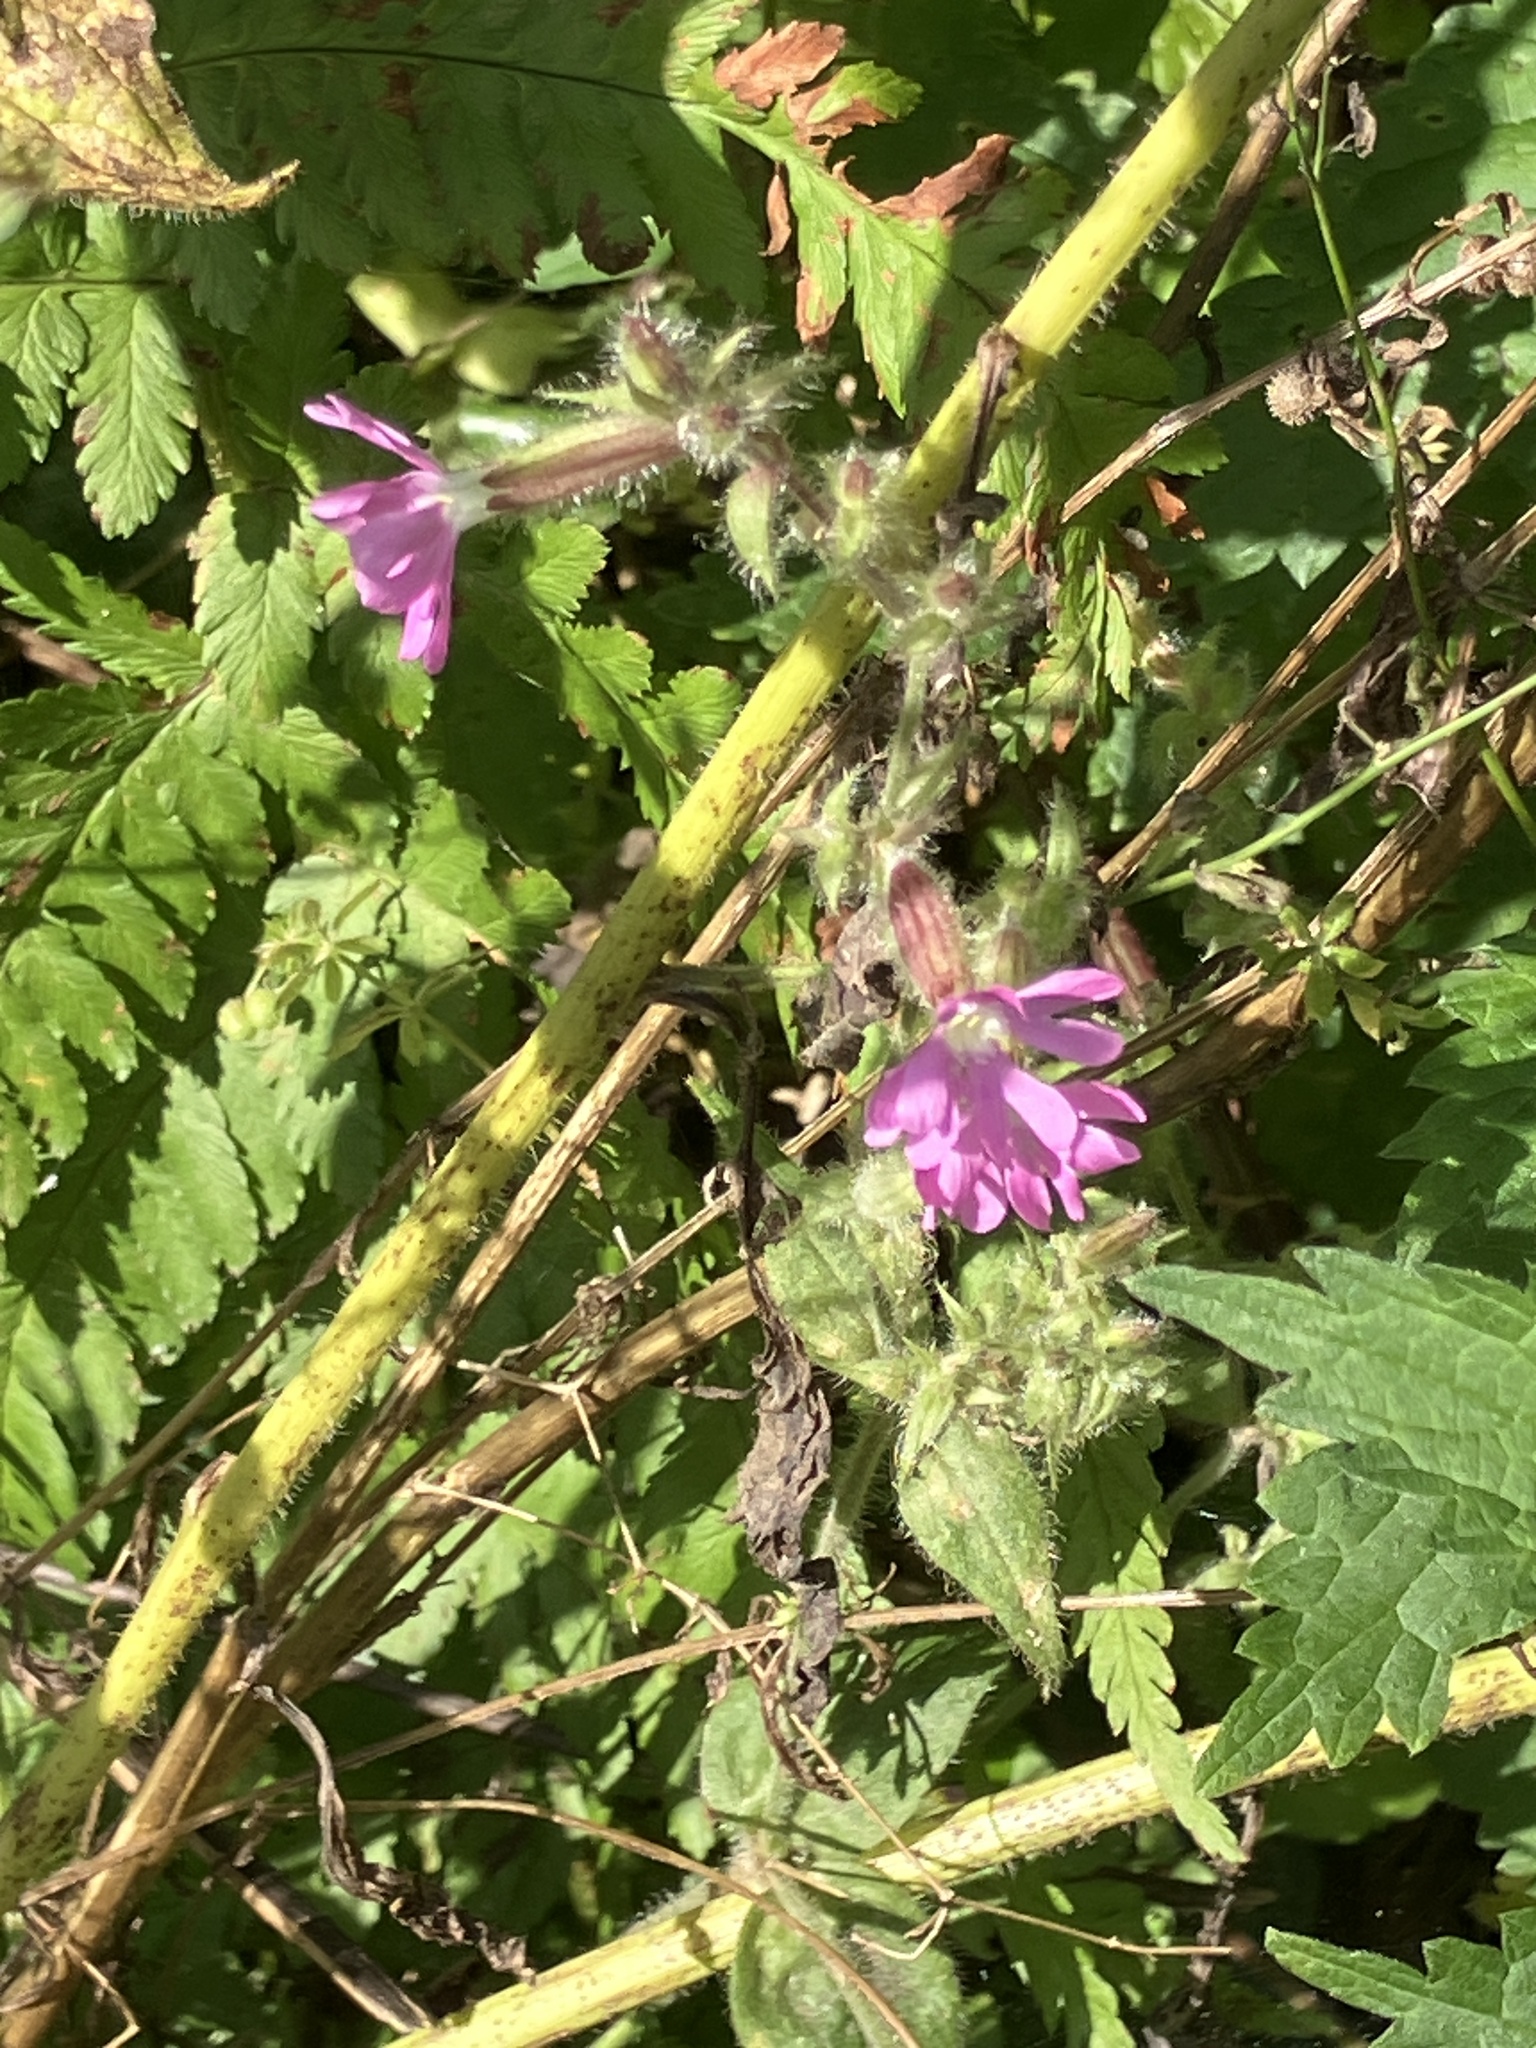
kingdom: Plantae
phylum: Tracheophyta
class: Magnoliopsida
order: Caryophyllales
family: Caryophyllaceae
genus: Silene
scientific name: Silene dioica
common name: Red campion
